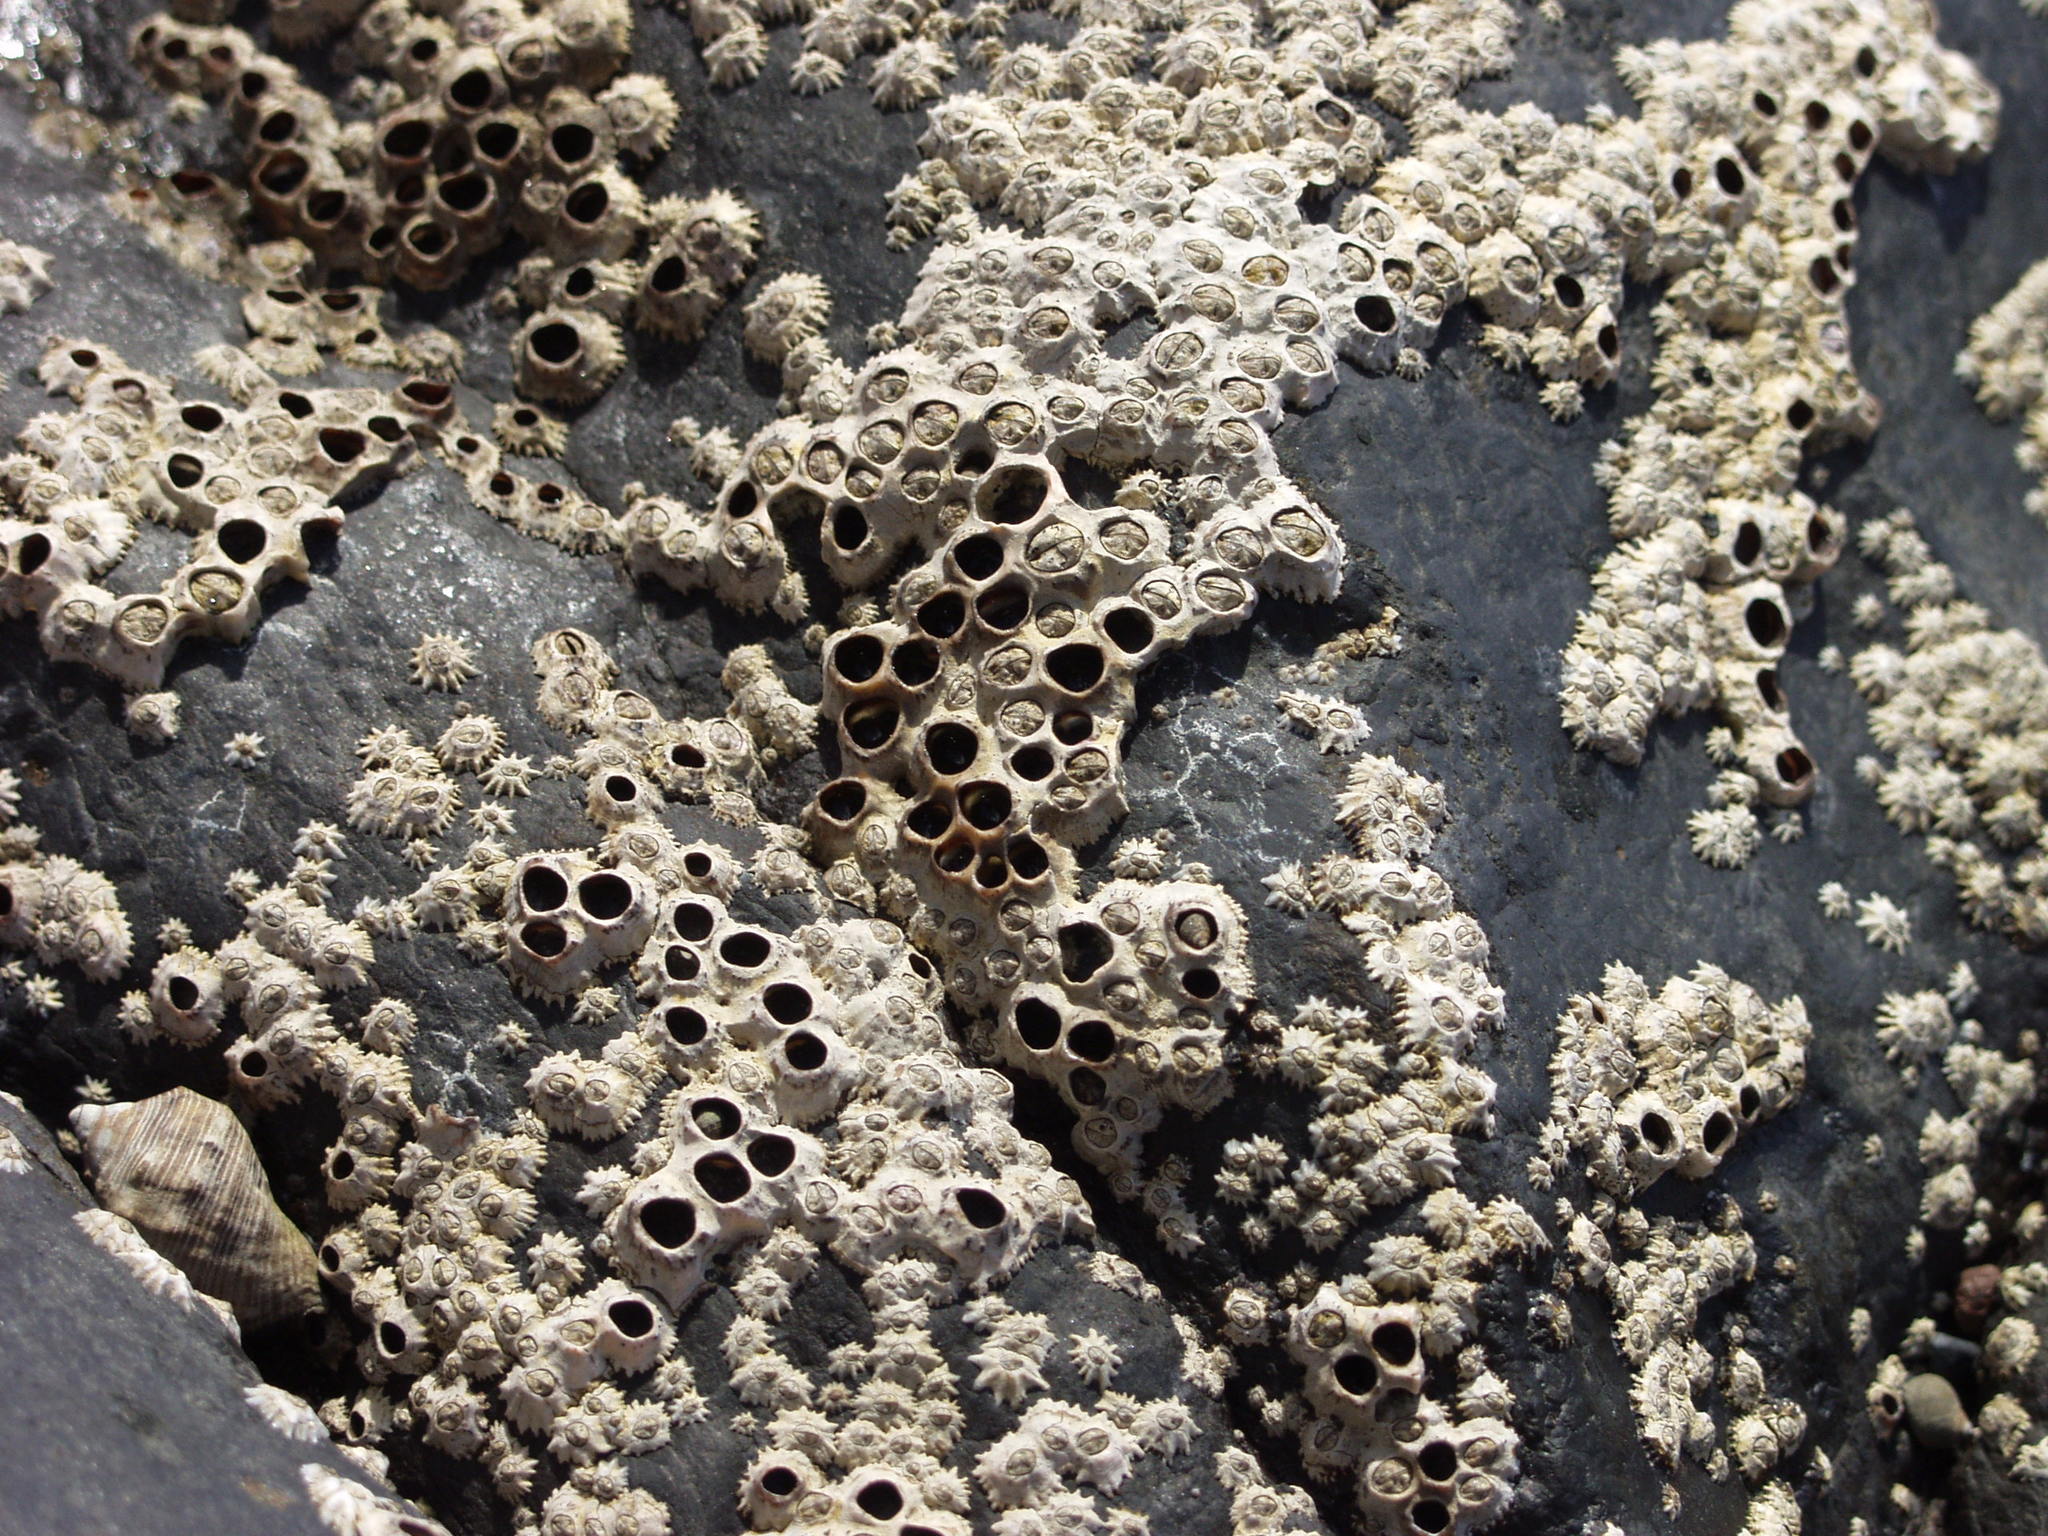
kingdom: Animalia
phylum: Arthropoda
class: Maxillopoda
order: Sessilia
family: Chthamalidae
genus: Chthamalus
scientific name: Chthamalus stellatus
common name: Poli's stellate barnacle
